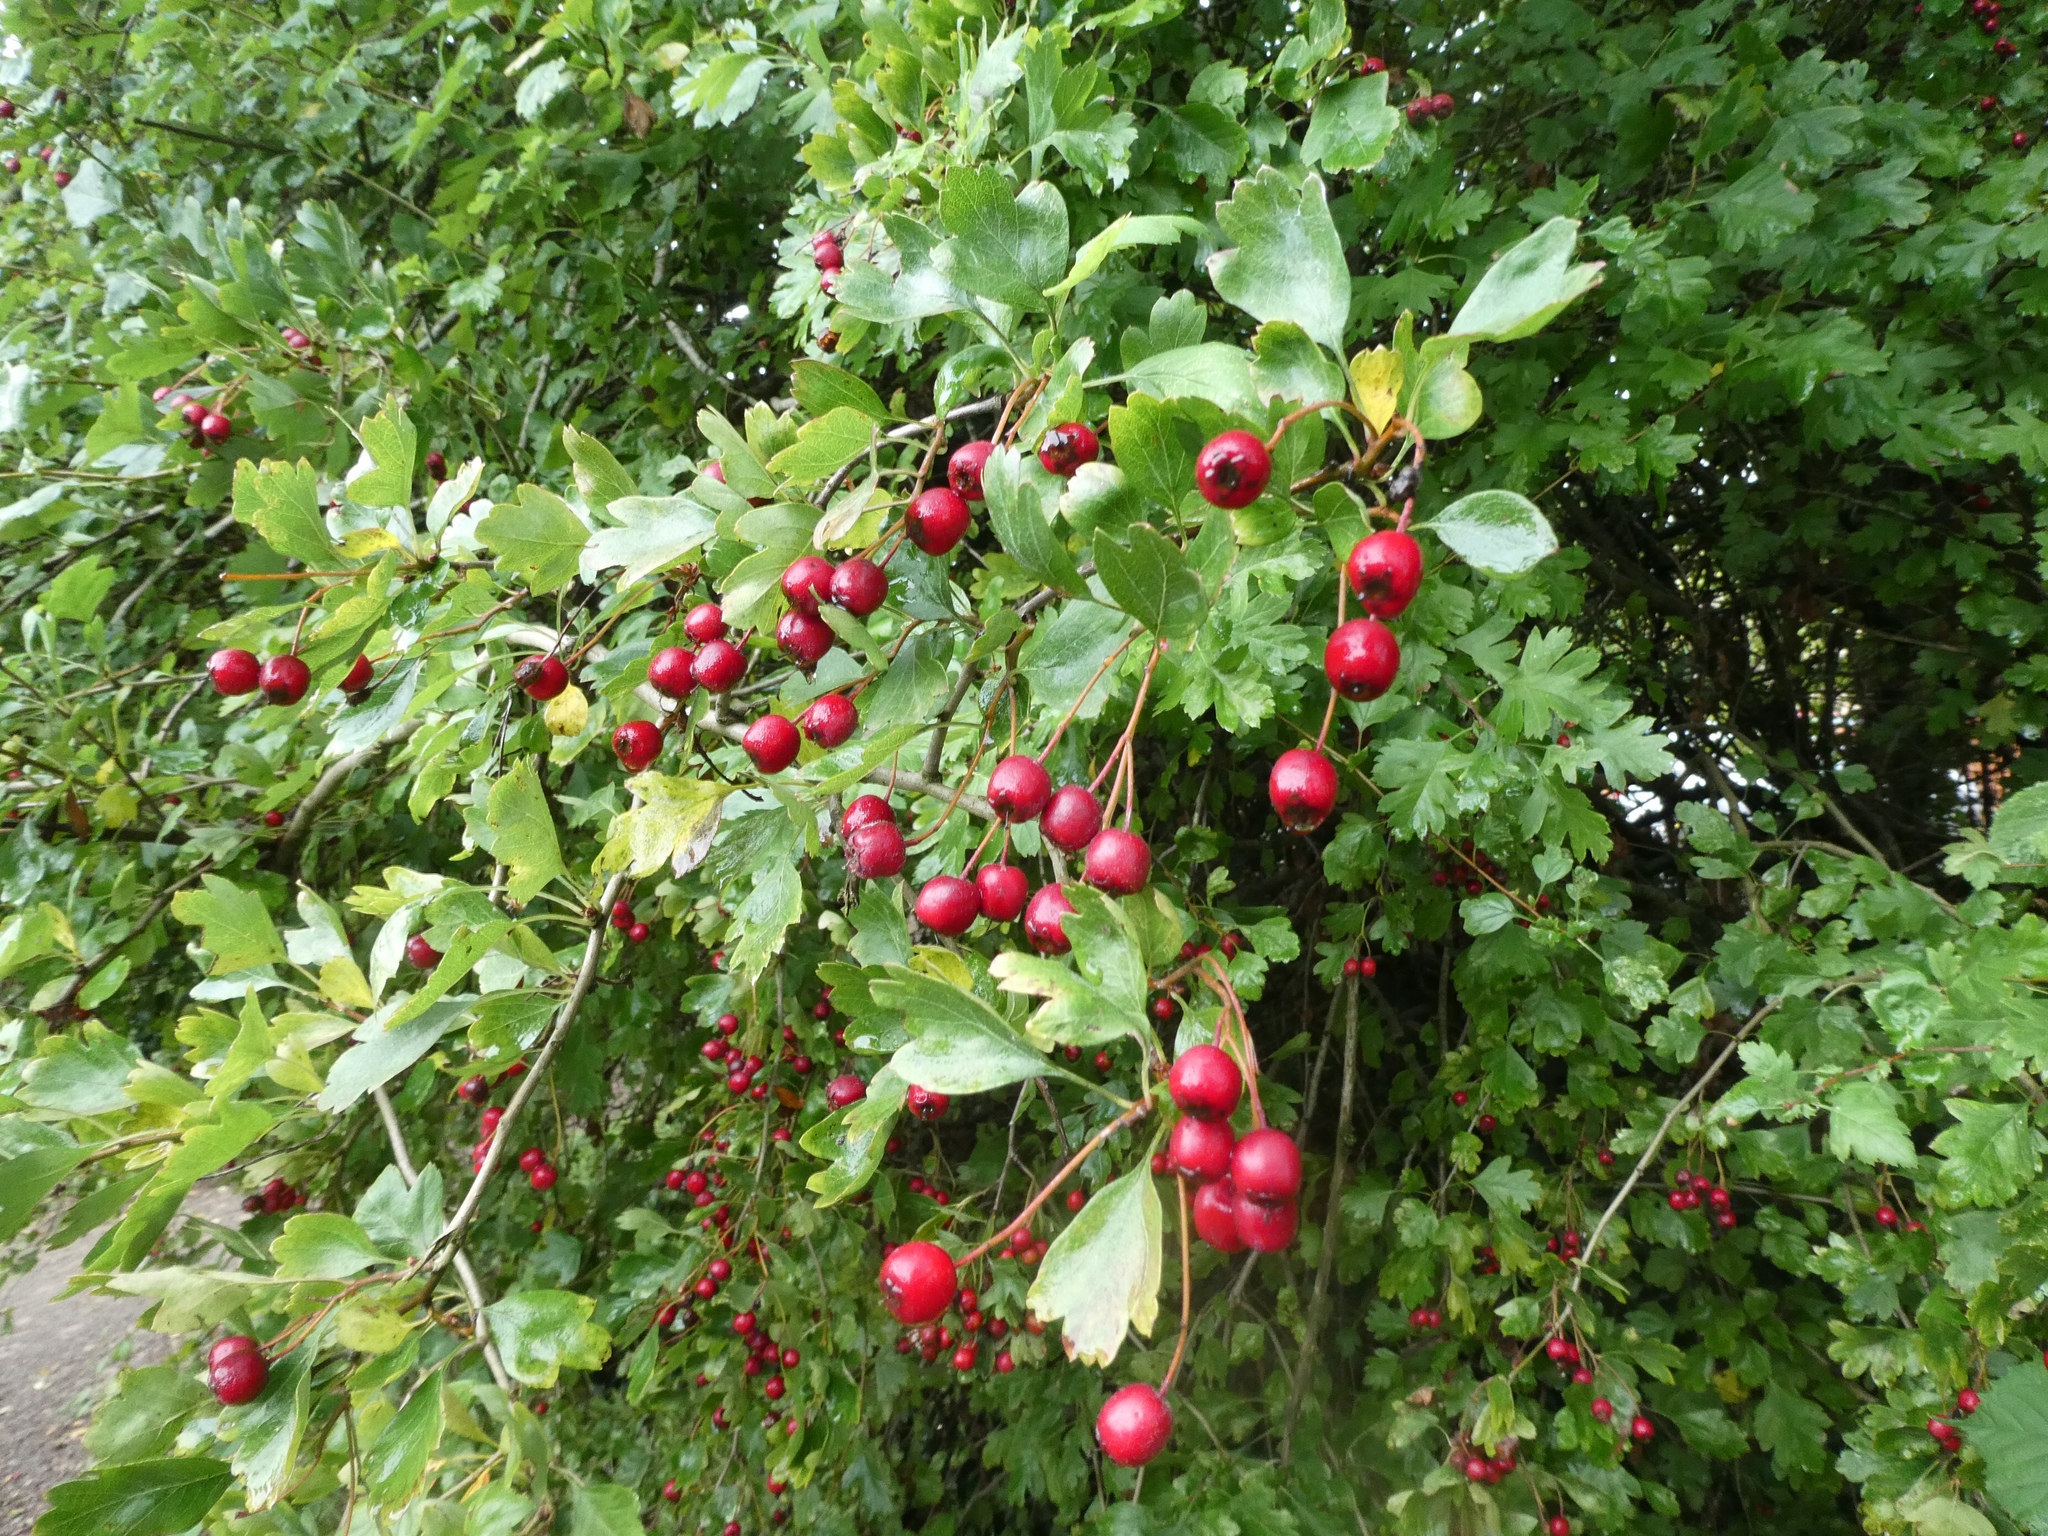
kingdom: Plantae
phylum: Tracheophyta
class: Magnoliopsida
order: Rosales
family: Rosaceae
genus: Crataegus
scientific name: Crataegus laevigata
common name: Midland hawthorn
